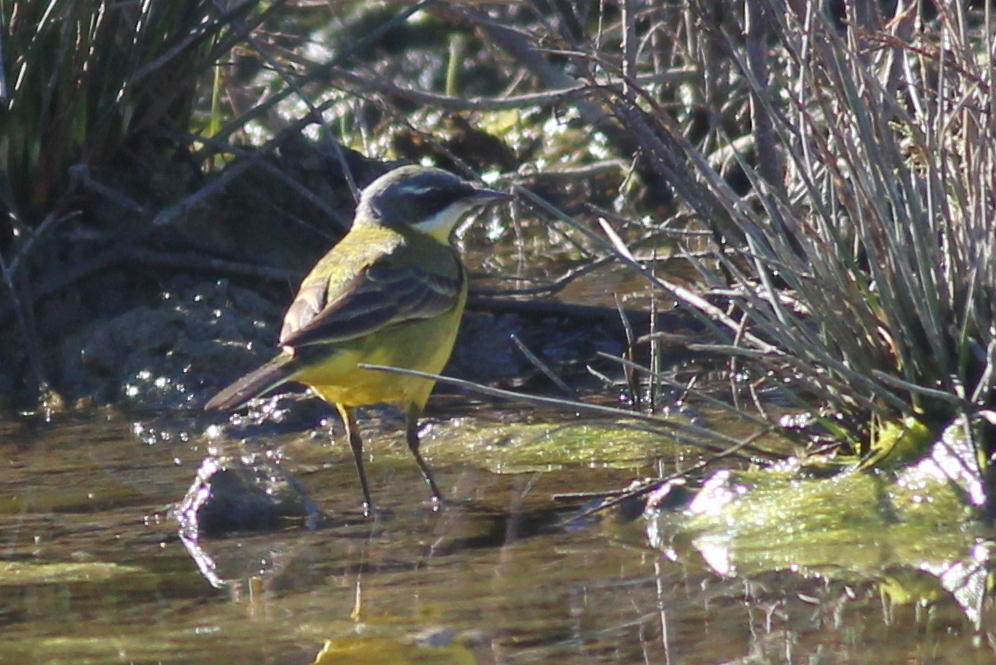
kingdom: Animalia
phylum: Chordata
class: Aves
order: Passeriformes
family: Motacillidae
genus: Motacilla
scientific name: Motacilla flava
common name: Western yellow wagtail
